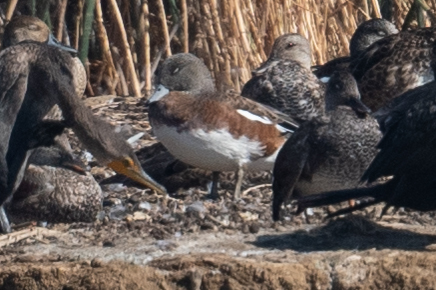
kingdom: Animalia
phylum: Chordata
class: Aves
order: Anseriformes
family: Anatidae
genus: Mareca
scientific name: Mareca americana
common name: American wigeon
